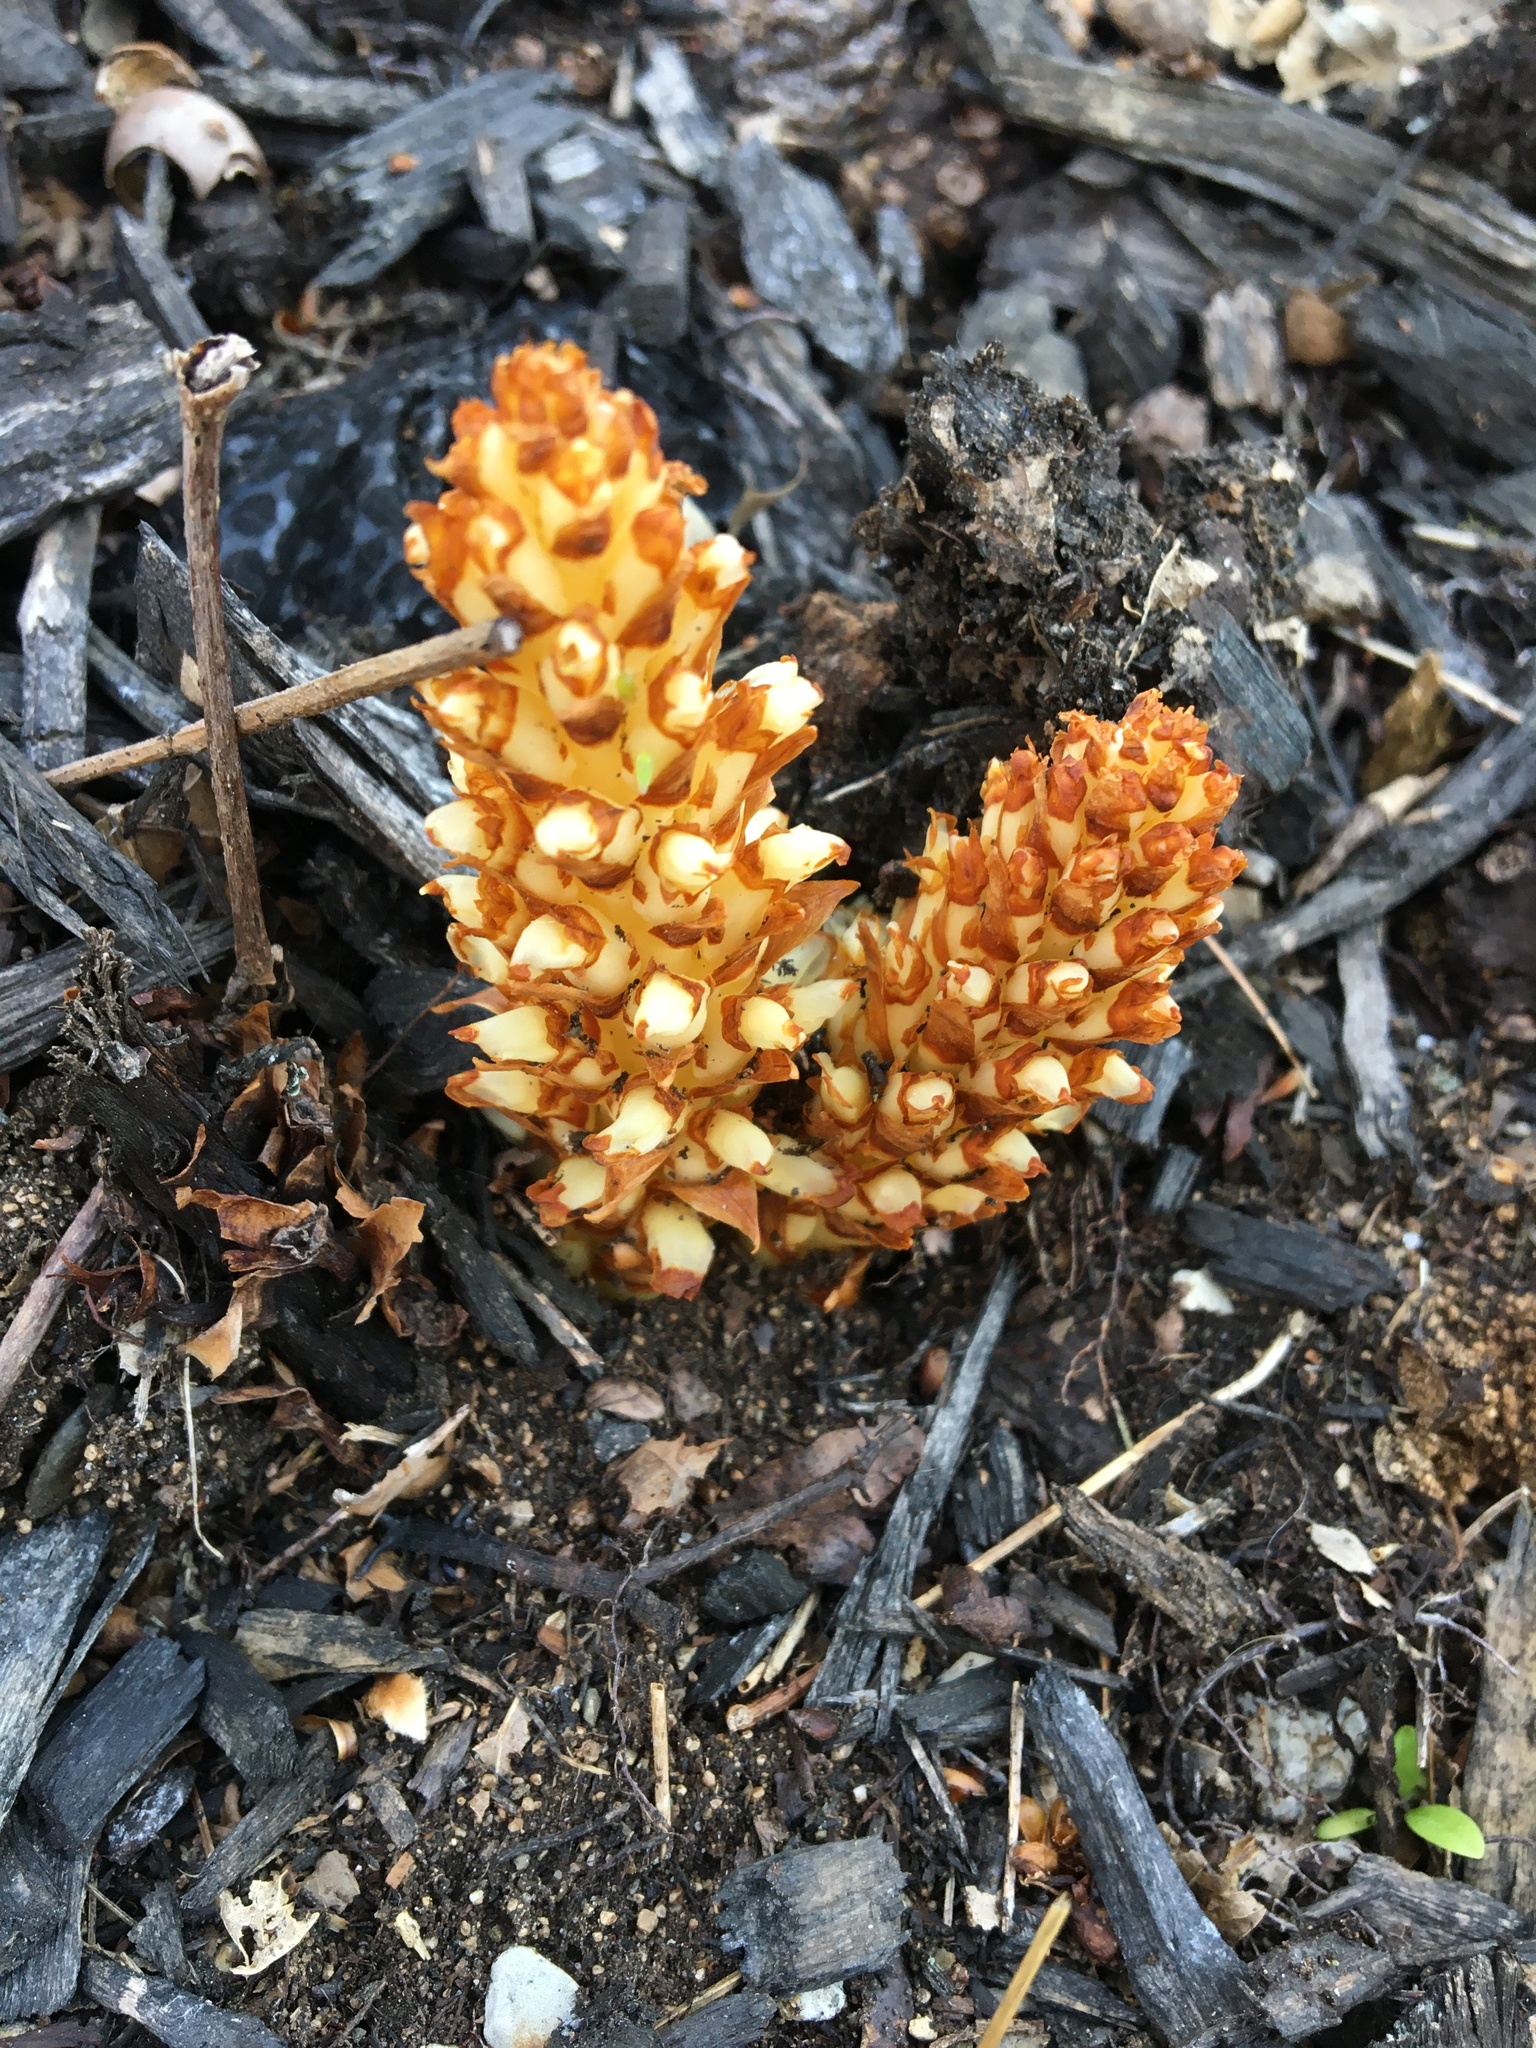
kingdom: Plantae
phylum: Tracheophyta
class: Magnoliopsida
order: Lamiales
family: Orobanchaceae
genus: Conopholis
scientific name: Conopholis americana
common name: American cancer-root
